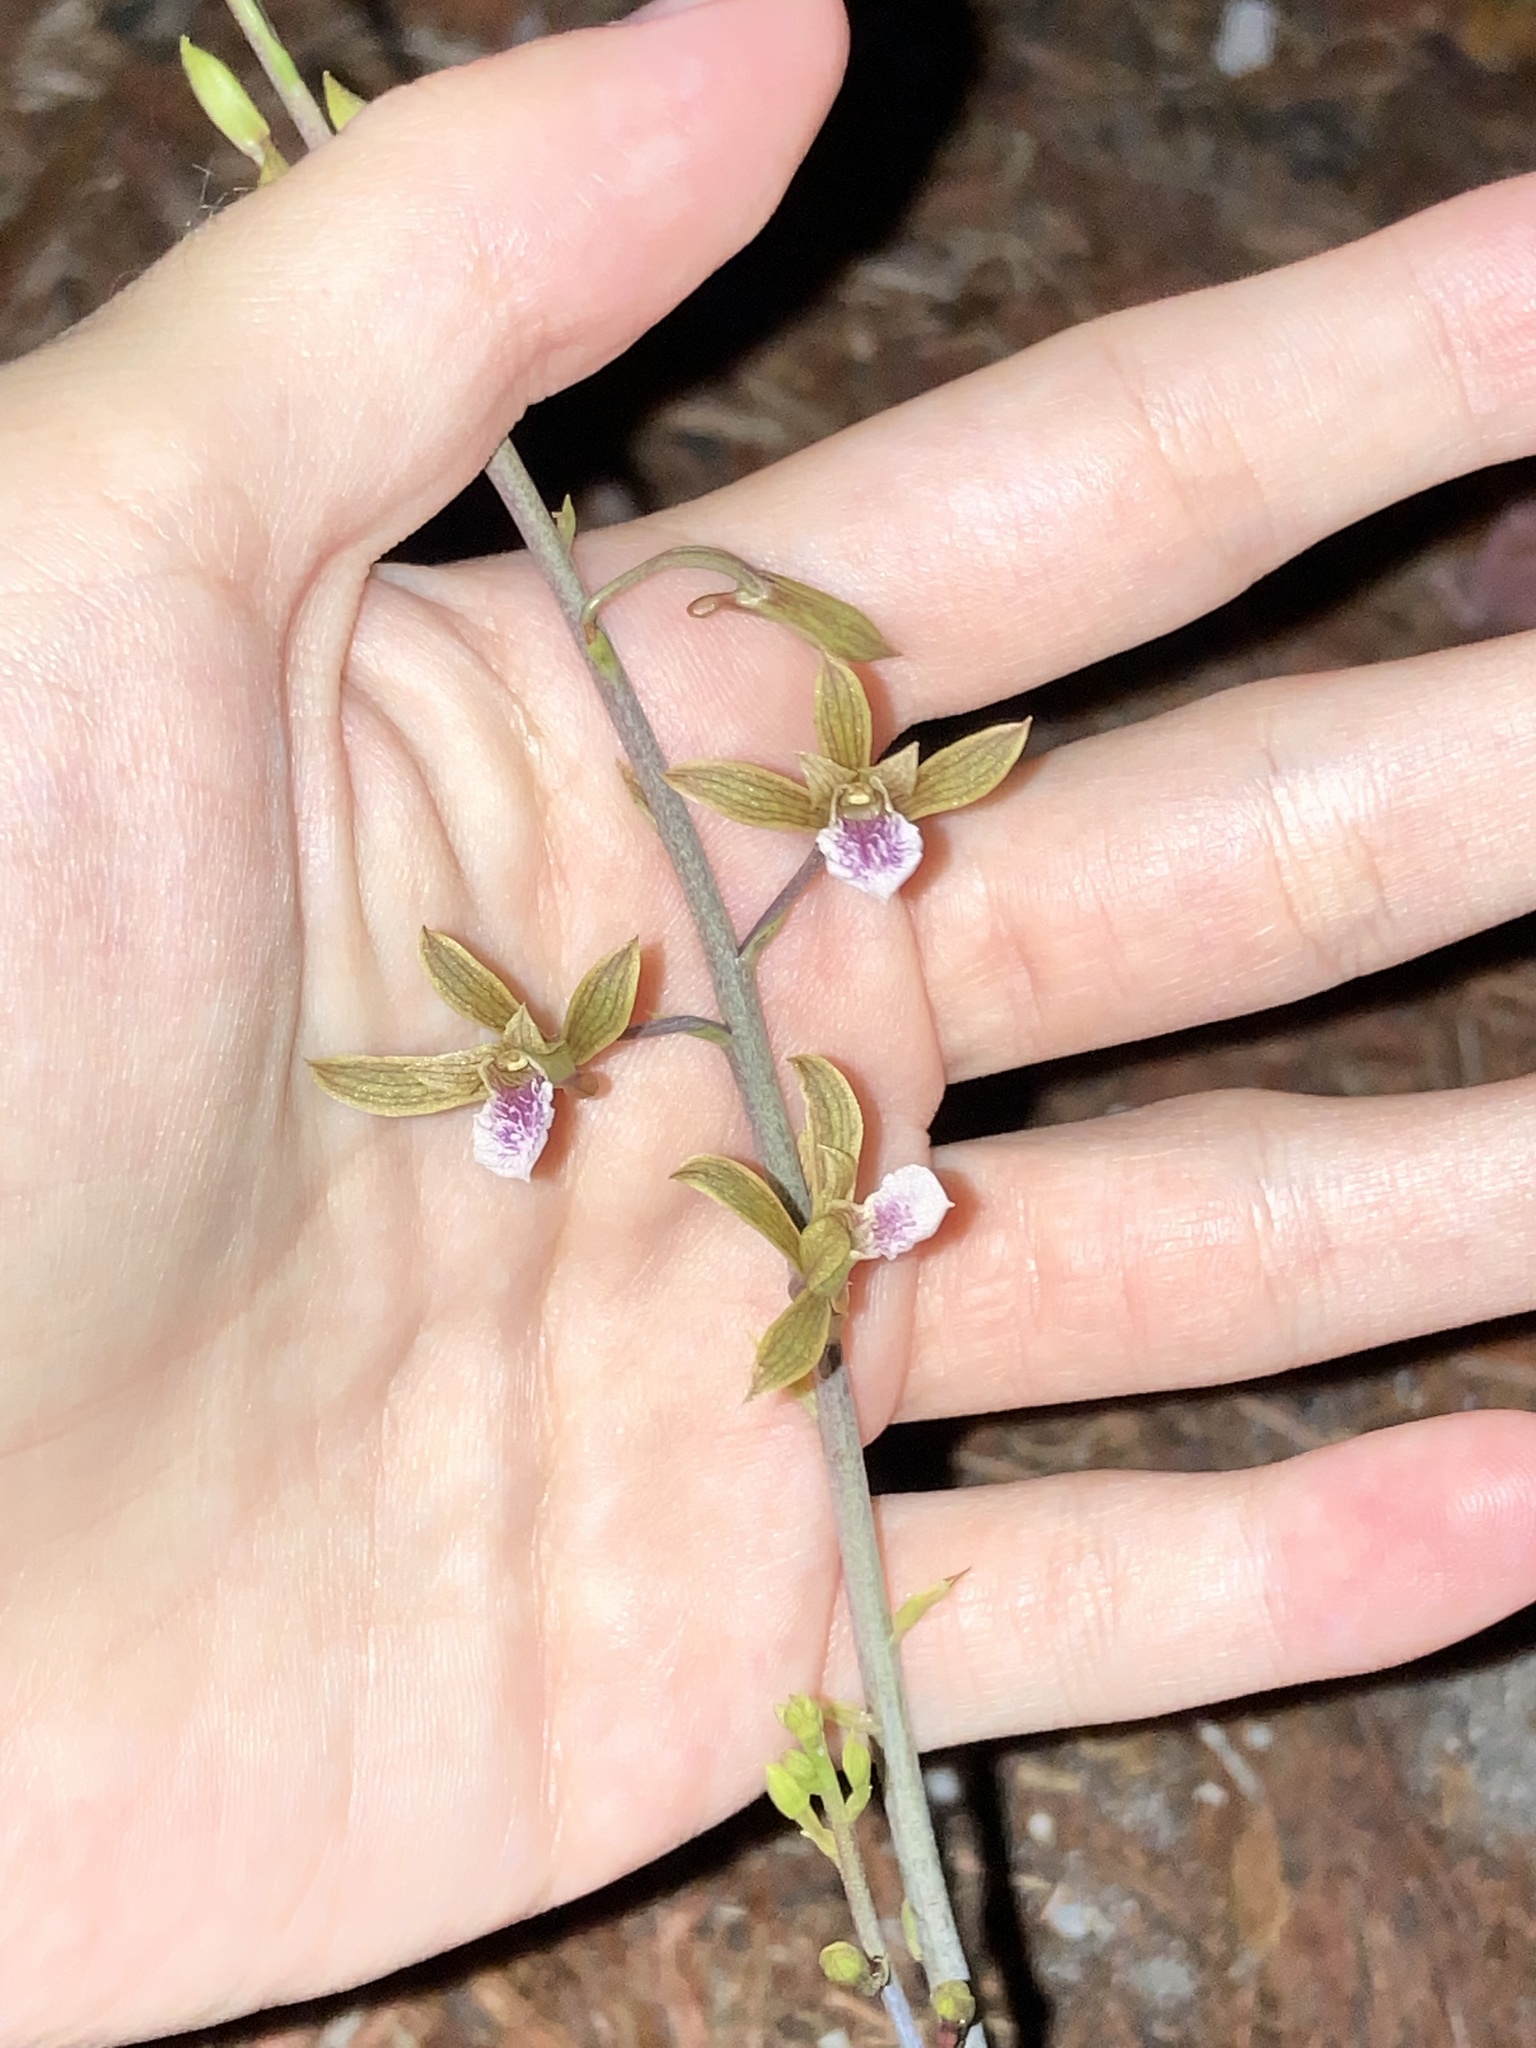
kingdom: Plantae
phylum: Tracheophyta
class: Liliopsida
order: Asparagales
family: Orchidaceae
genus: Eulophia
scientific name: Eulophia graminea
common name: Orchid
